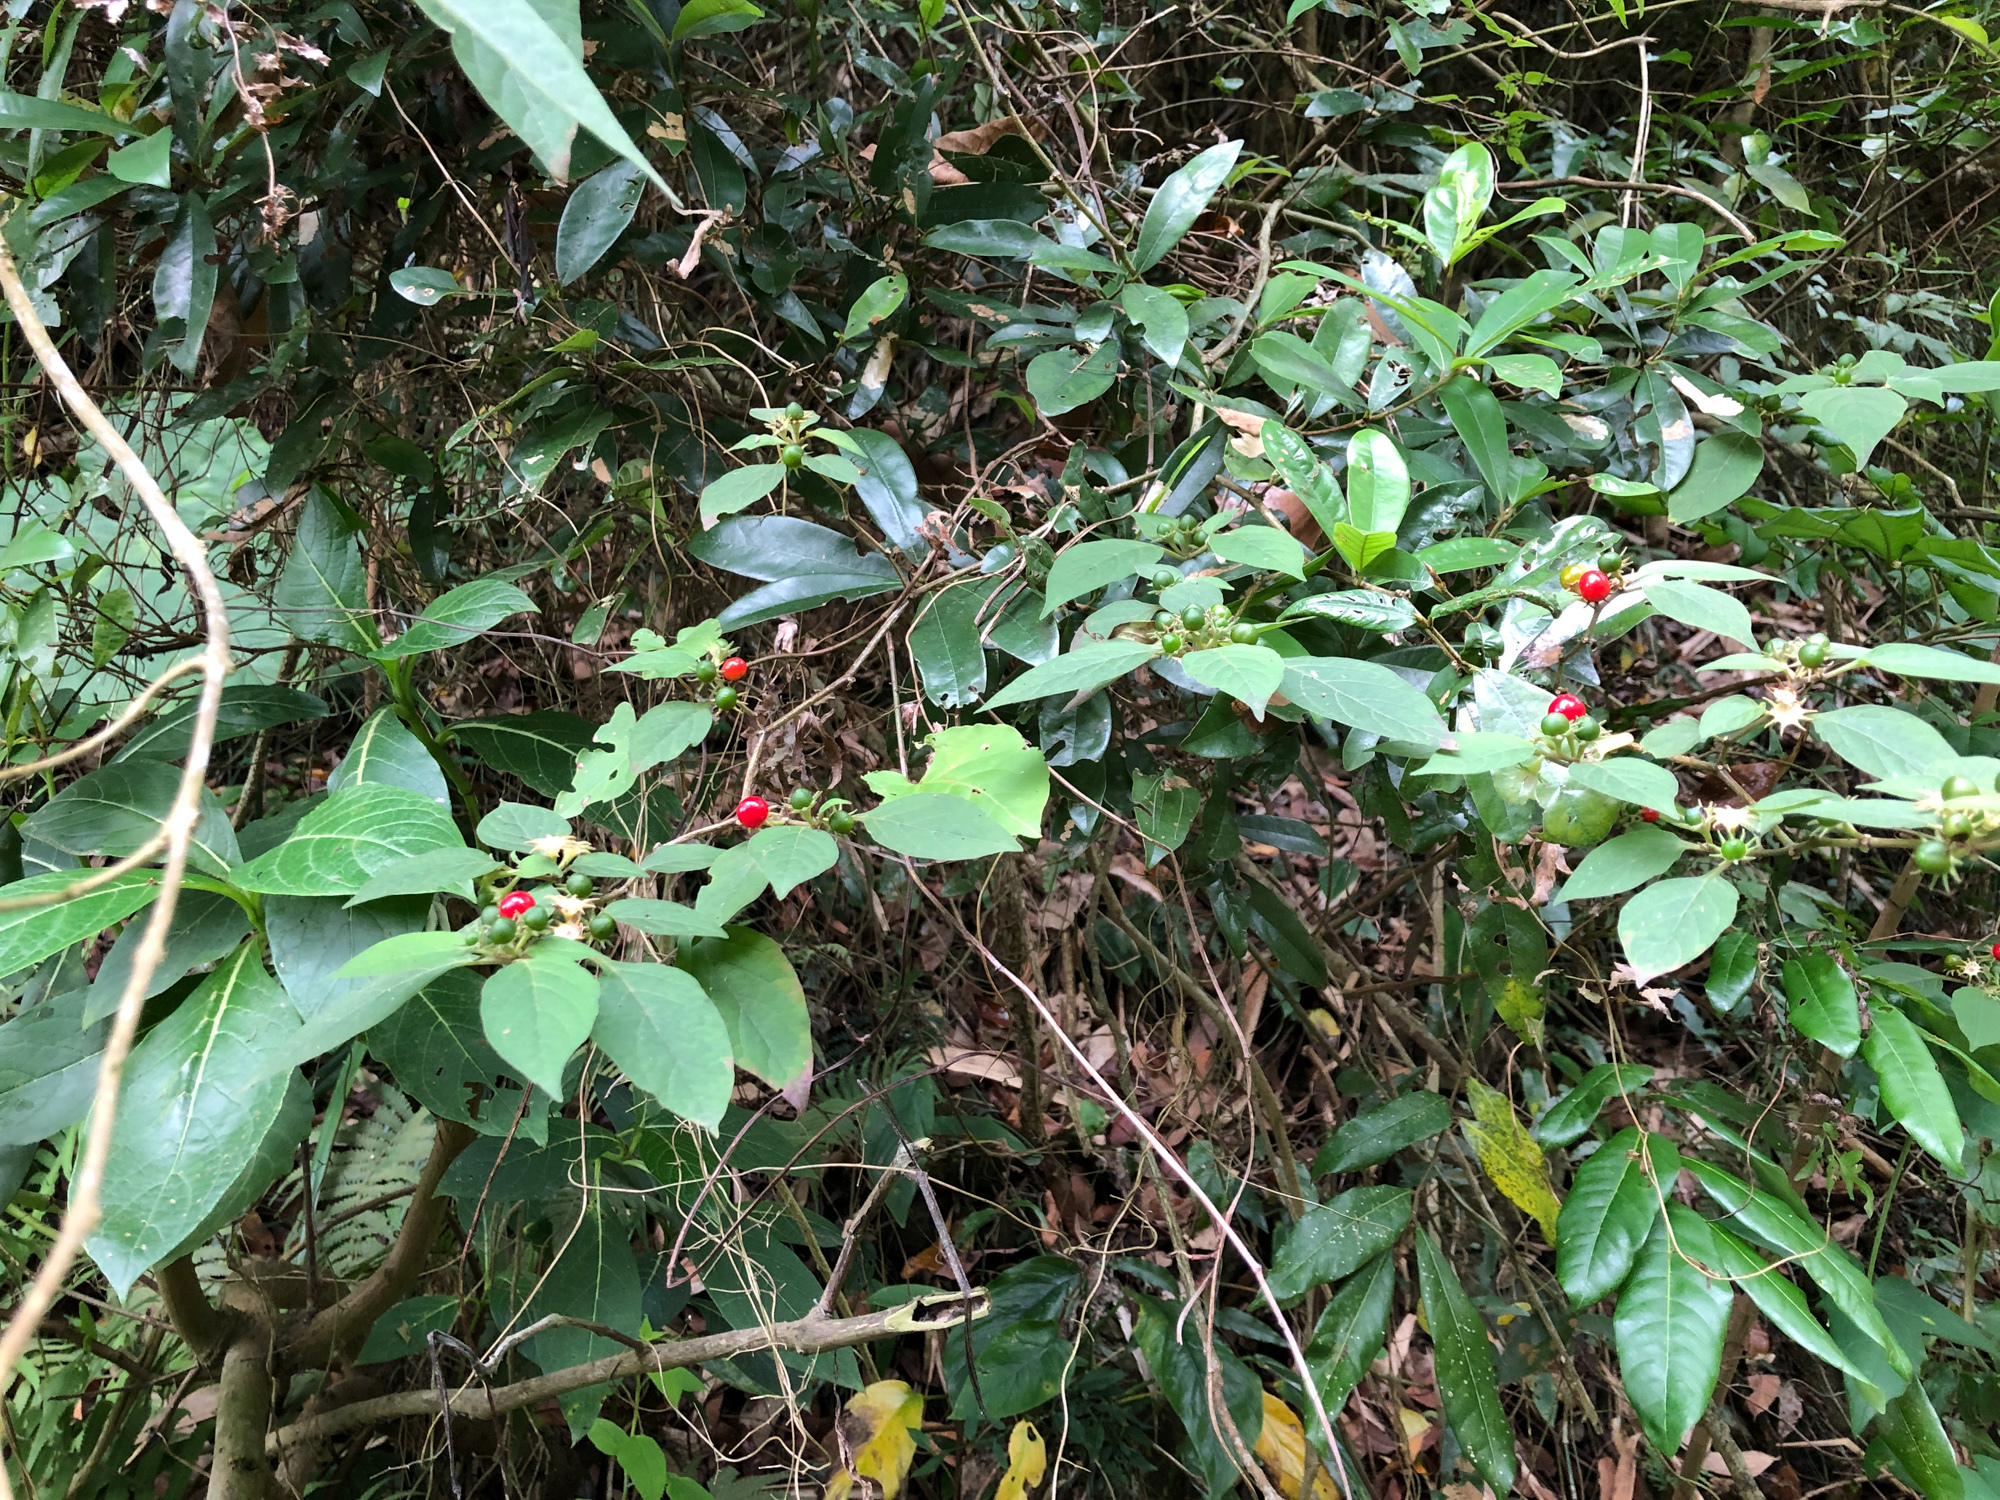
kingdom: Plantae
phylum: Tracheophyta
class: Magnoliopsida
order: Solanales
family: Solanaceae
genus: Lycianthes
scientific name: Lycianthes biflora
